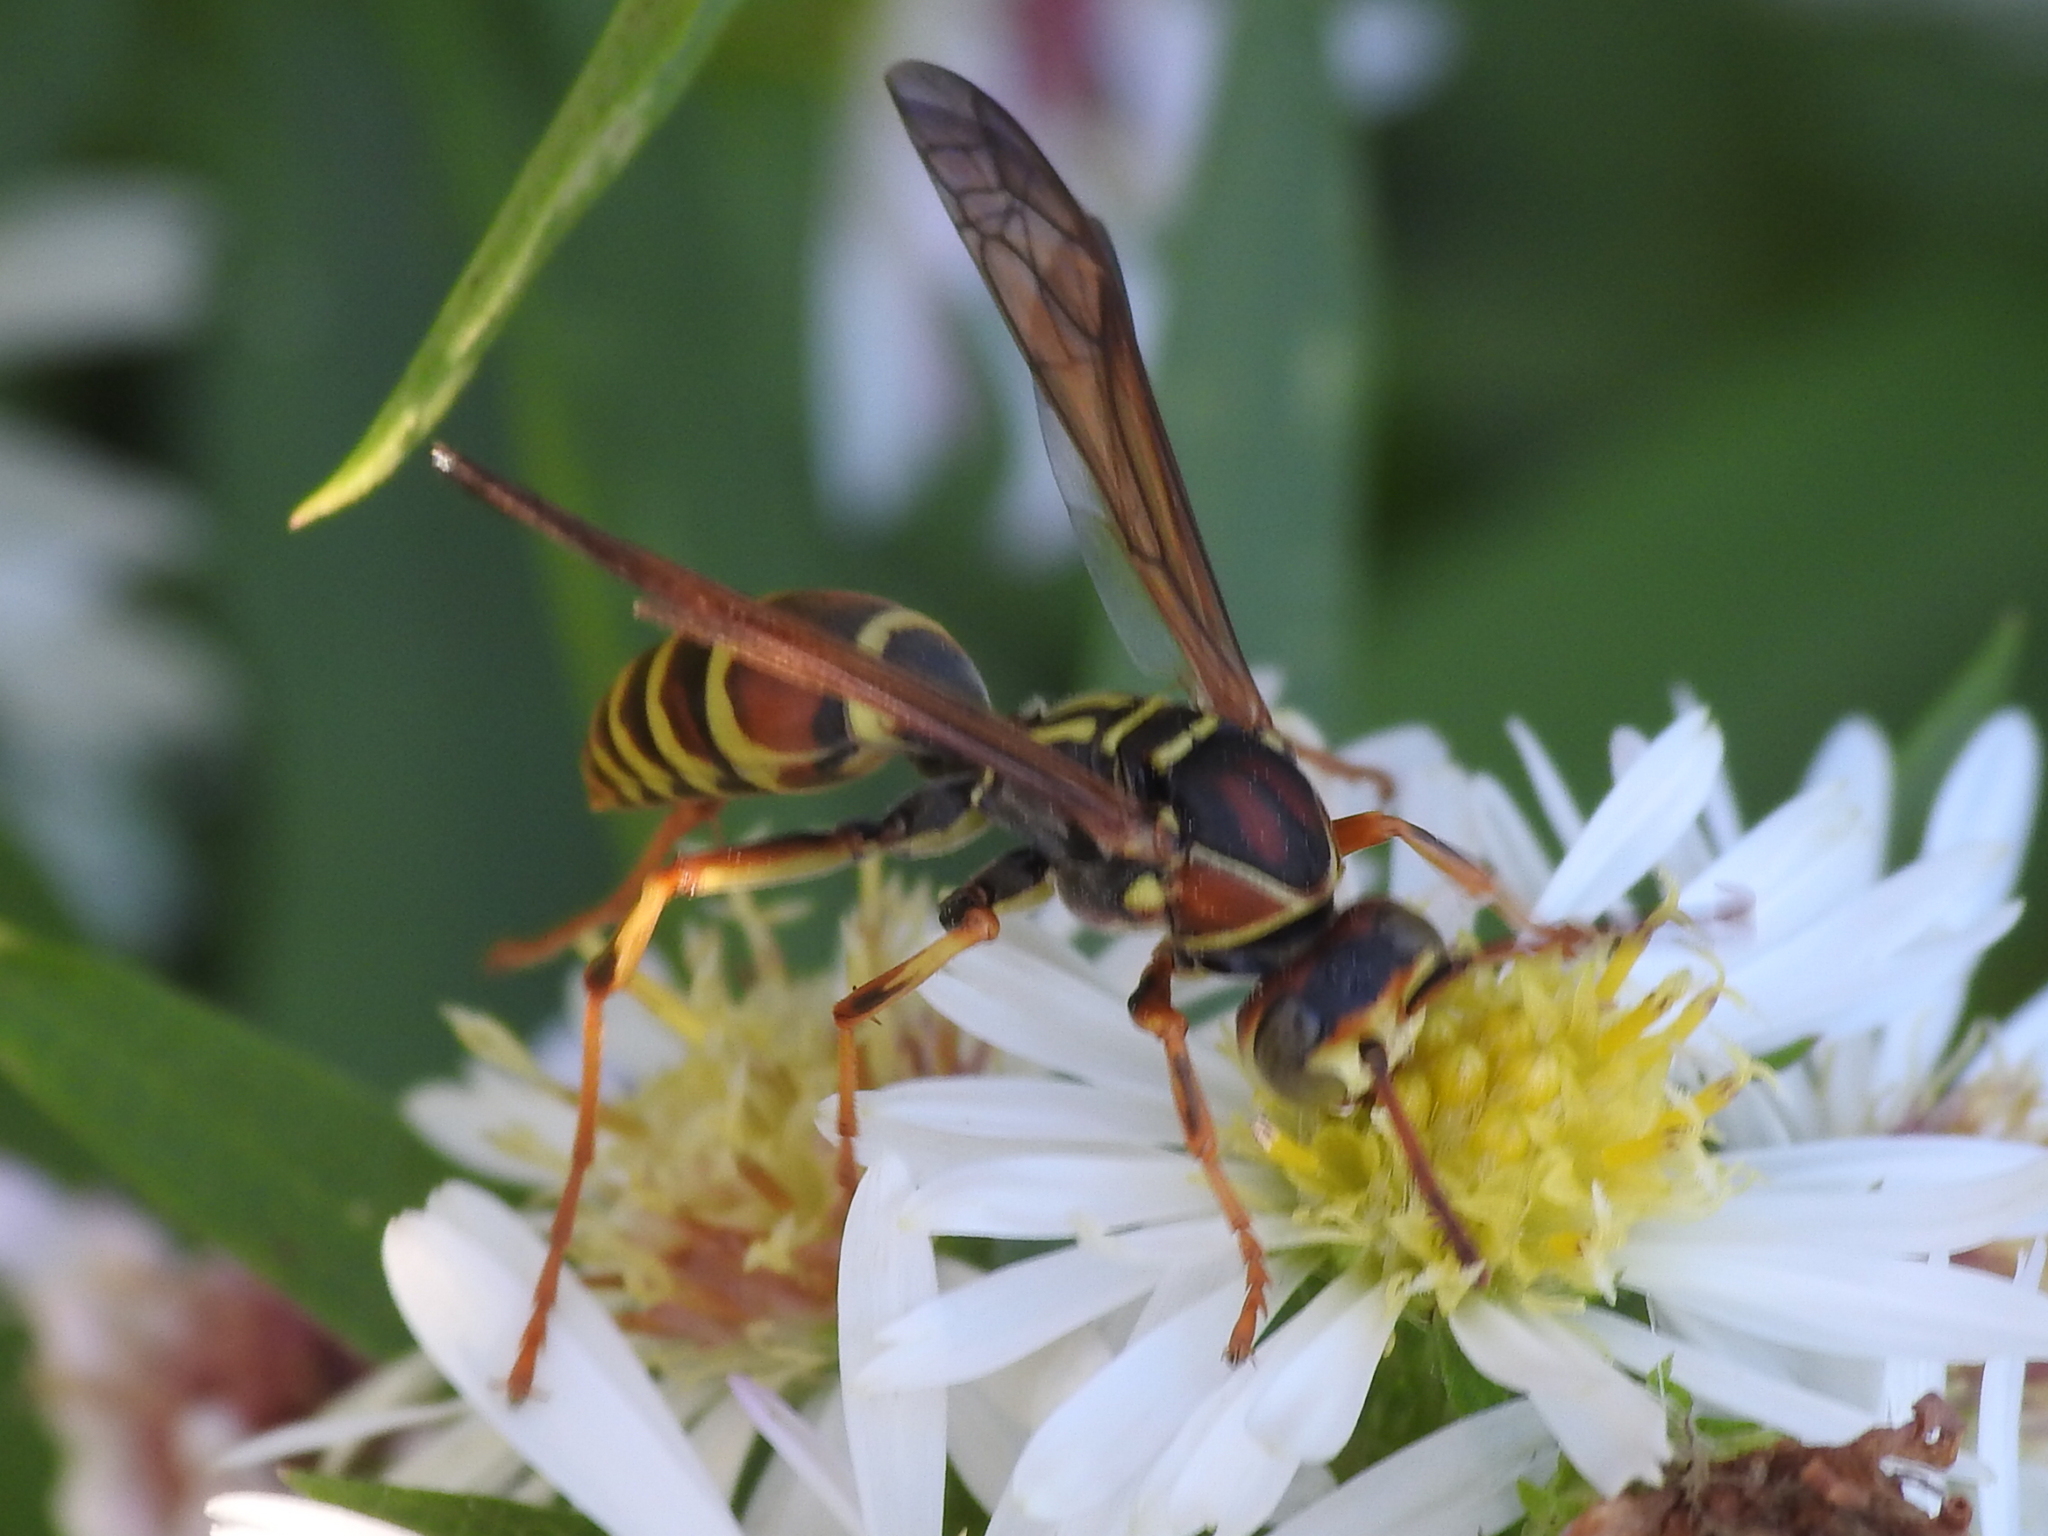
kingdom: Animalia
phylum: Arthropoda
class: Insecta
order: Hymenoptera
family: Eumenidae
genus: Polistes
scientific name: Polistes dorsalis
